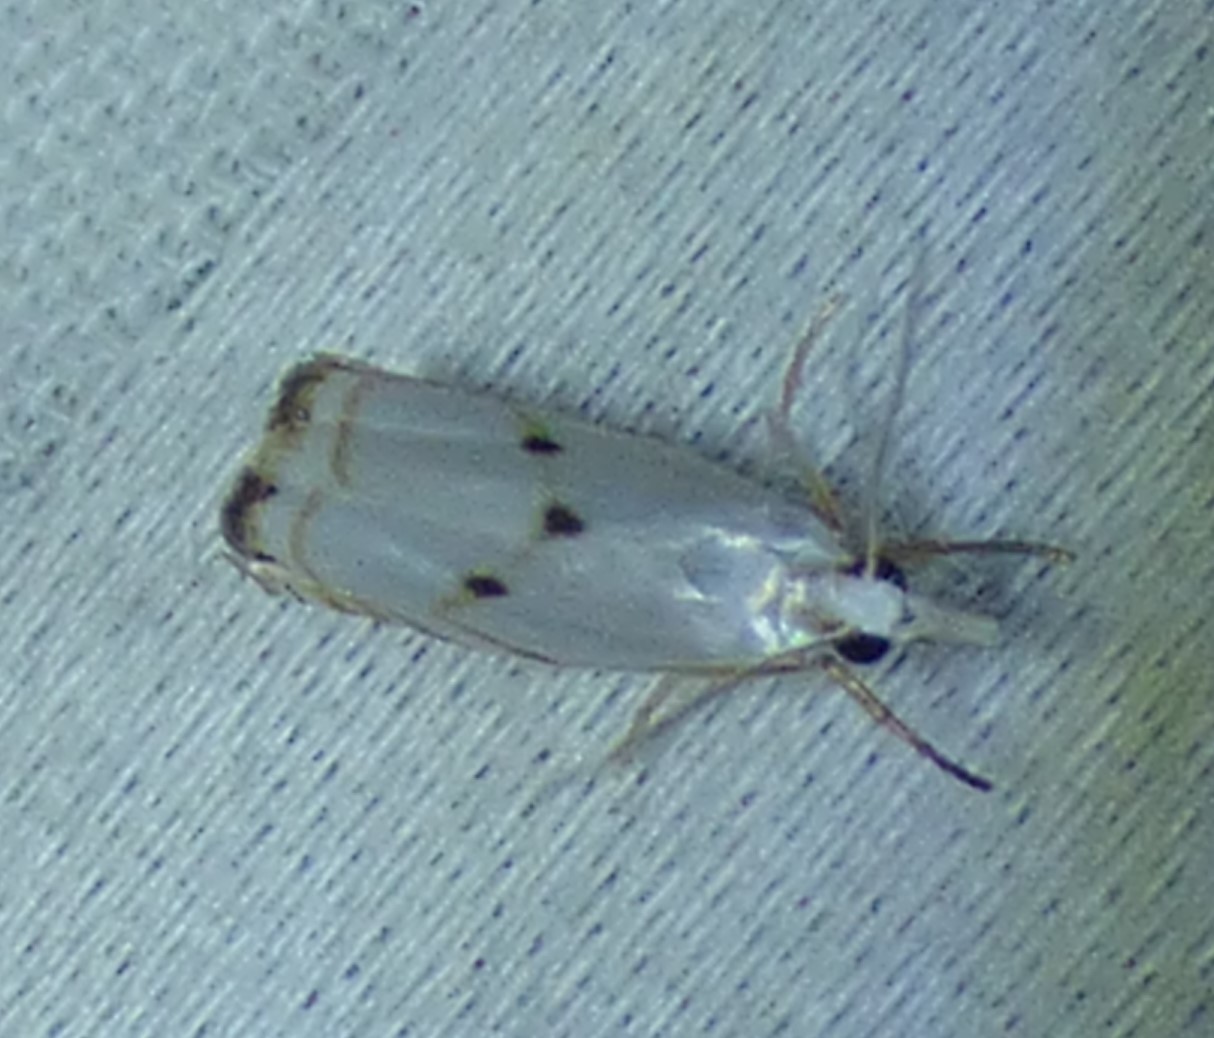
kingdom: Animalia
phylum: Arthropoda
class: Insecta
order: Lepidoptera
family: Crambidae
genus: Microcrambus
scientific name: Microcrambus biguttellus
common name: Gold-stripe grass-veneer moth
